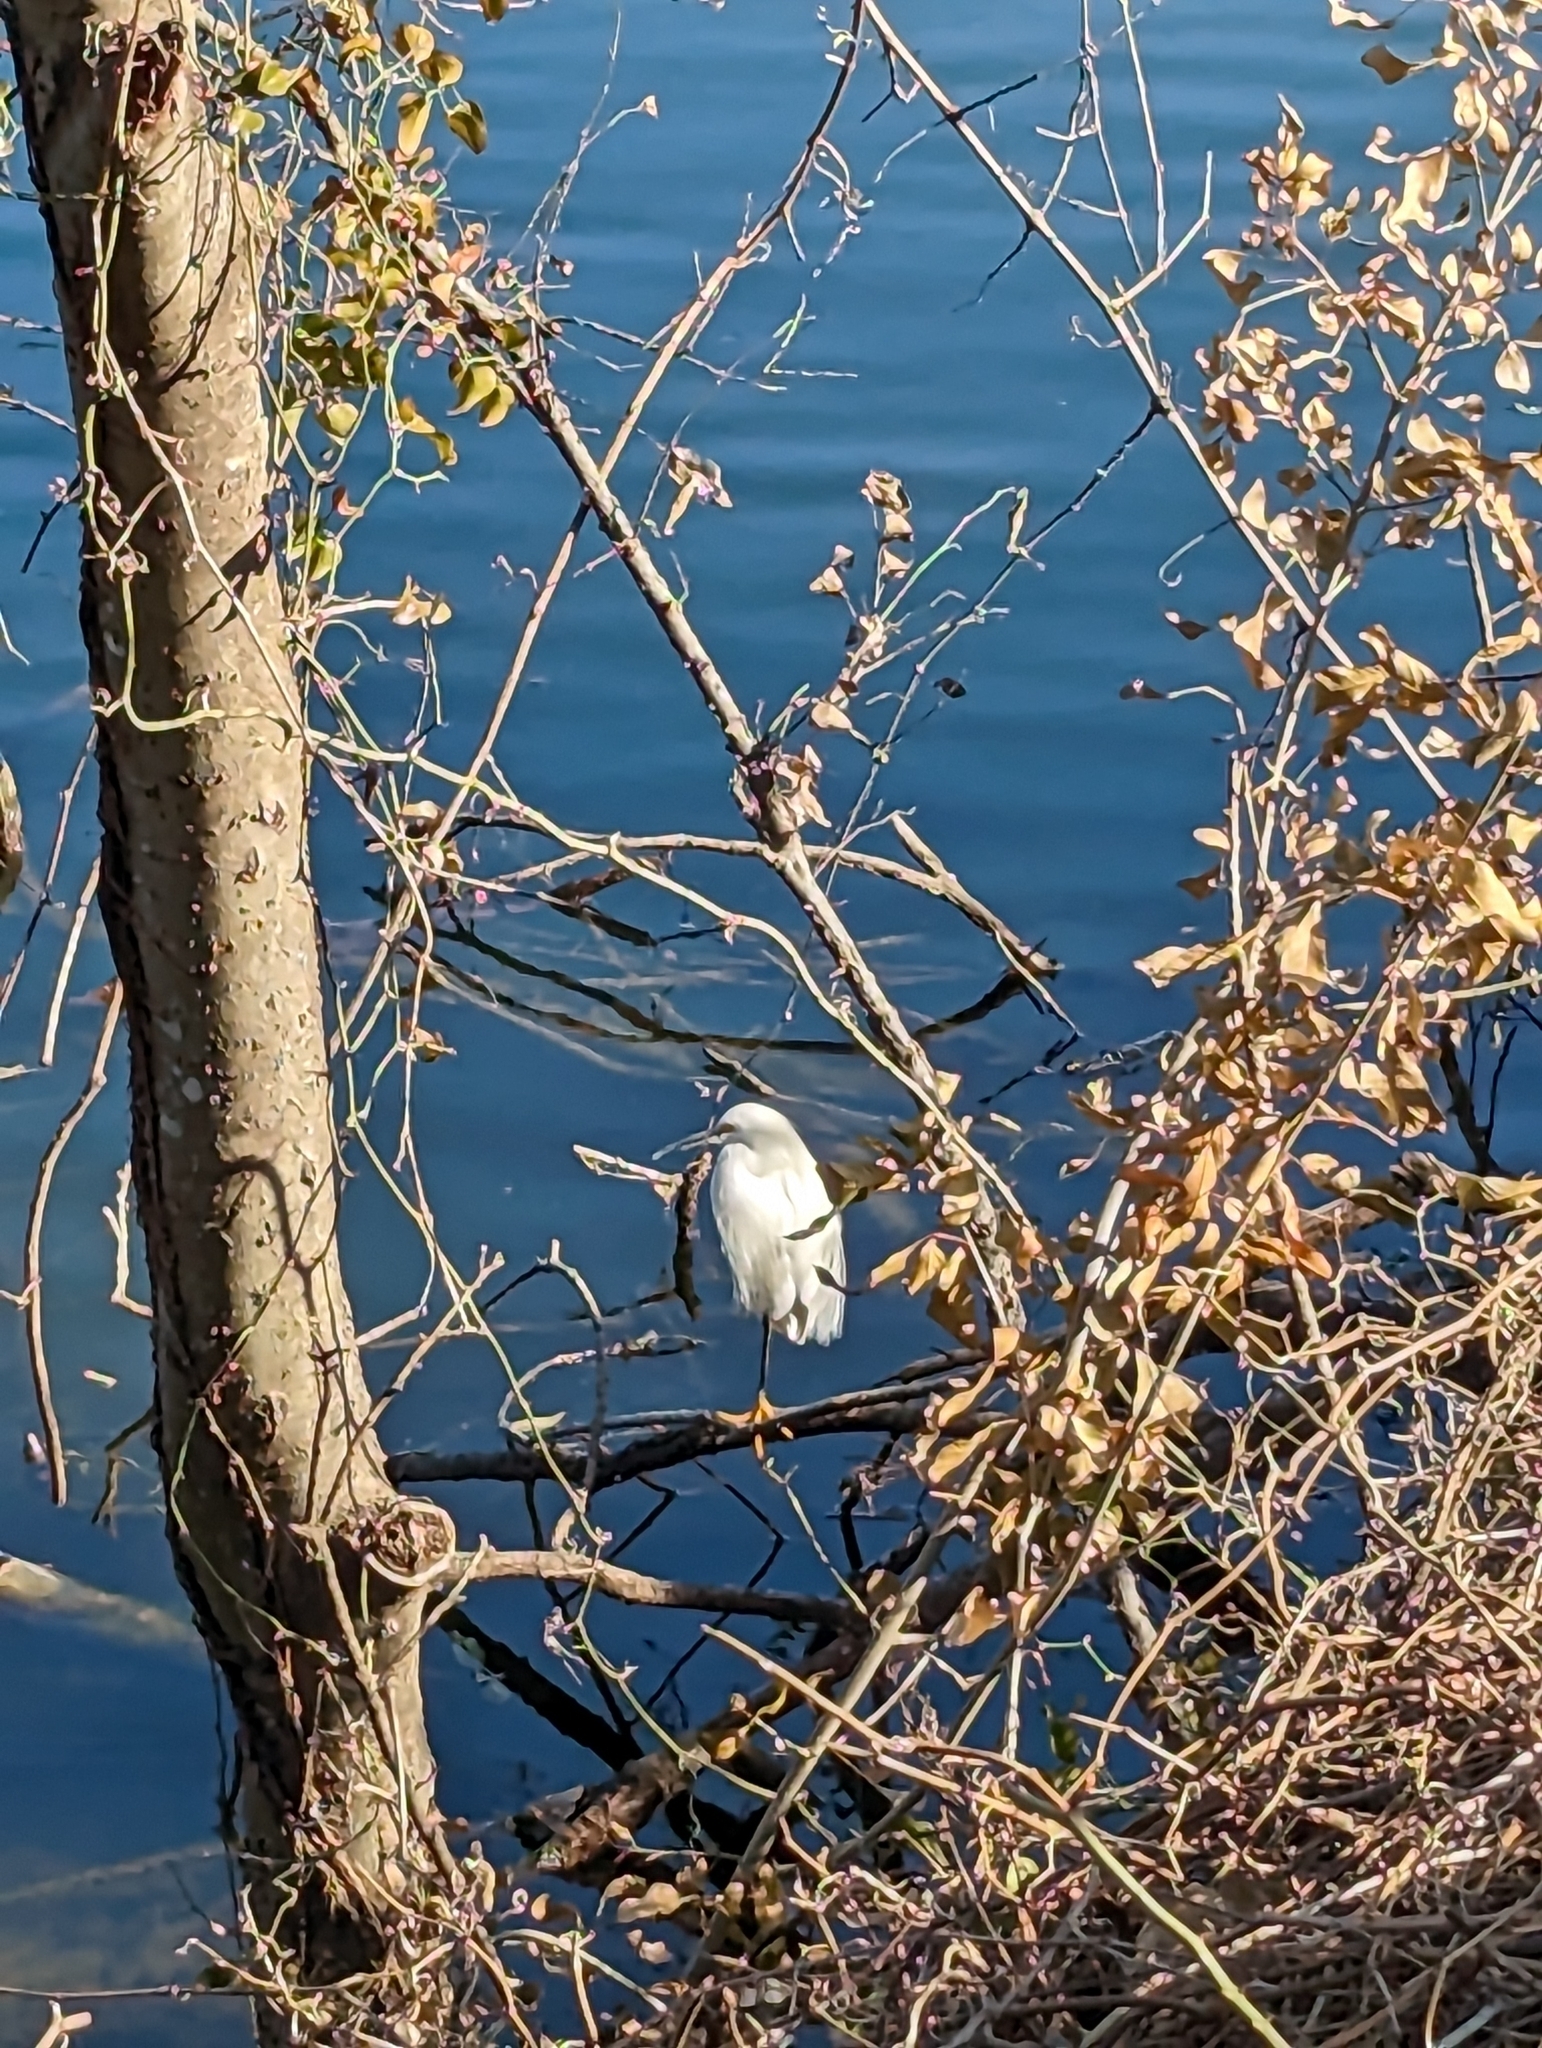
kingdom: Animalia
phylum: Chordata
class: Aves
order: Pelecaniformes
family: Ardeidae
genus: Egretta
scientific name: Egretta thula
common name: Snowy egret
